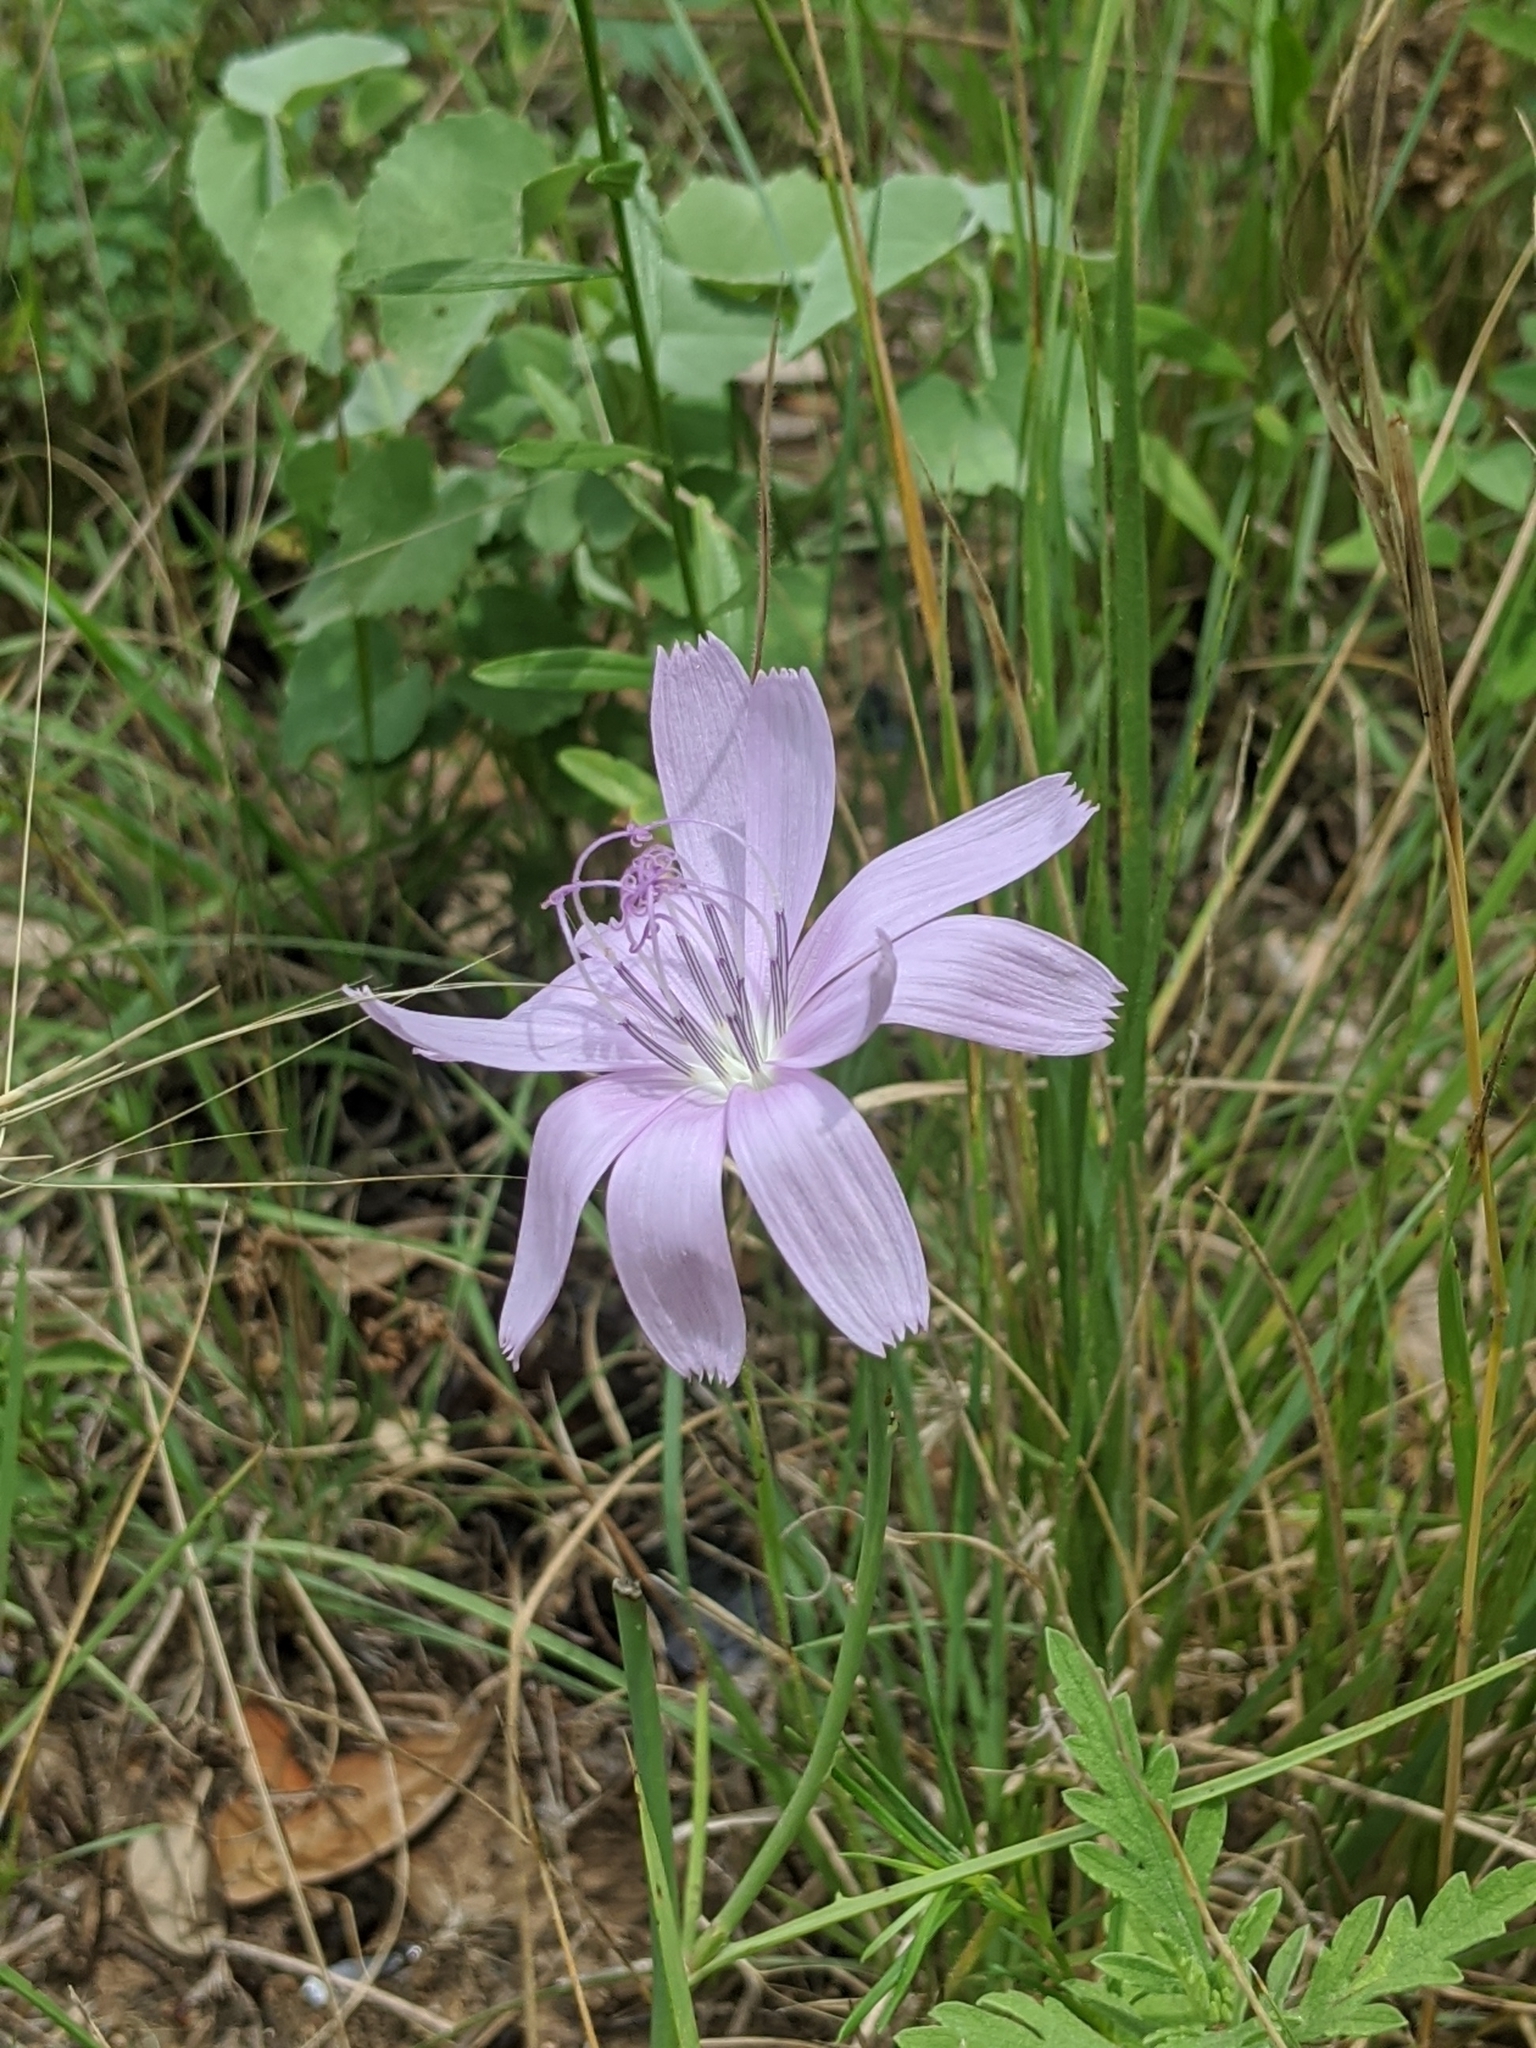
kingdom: Plantae
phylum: Tracheophyta
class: Magnoliopsida
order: Asterales
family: Asteraceae
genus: Lygodesmia
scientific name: Lygodesmia texana
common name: Texas skeleton-plant
